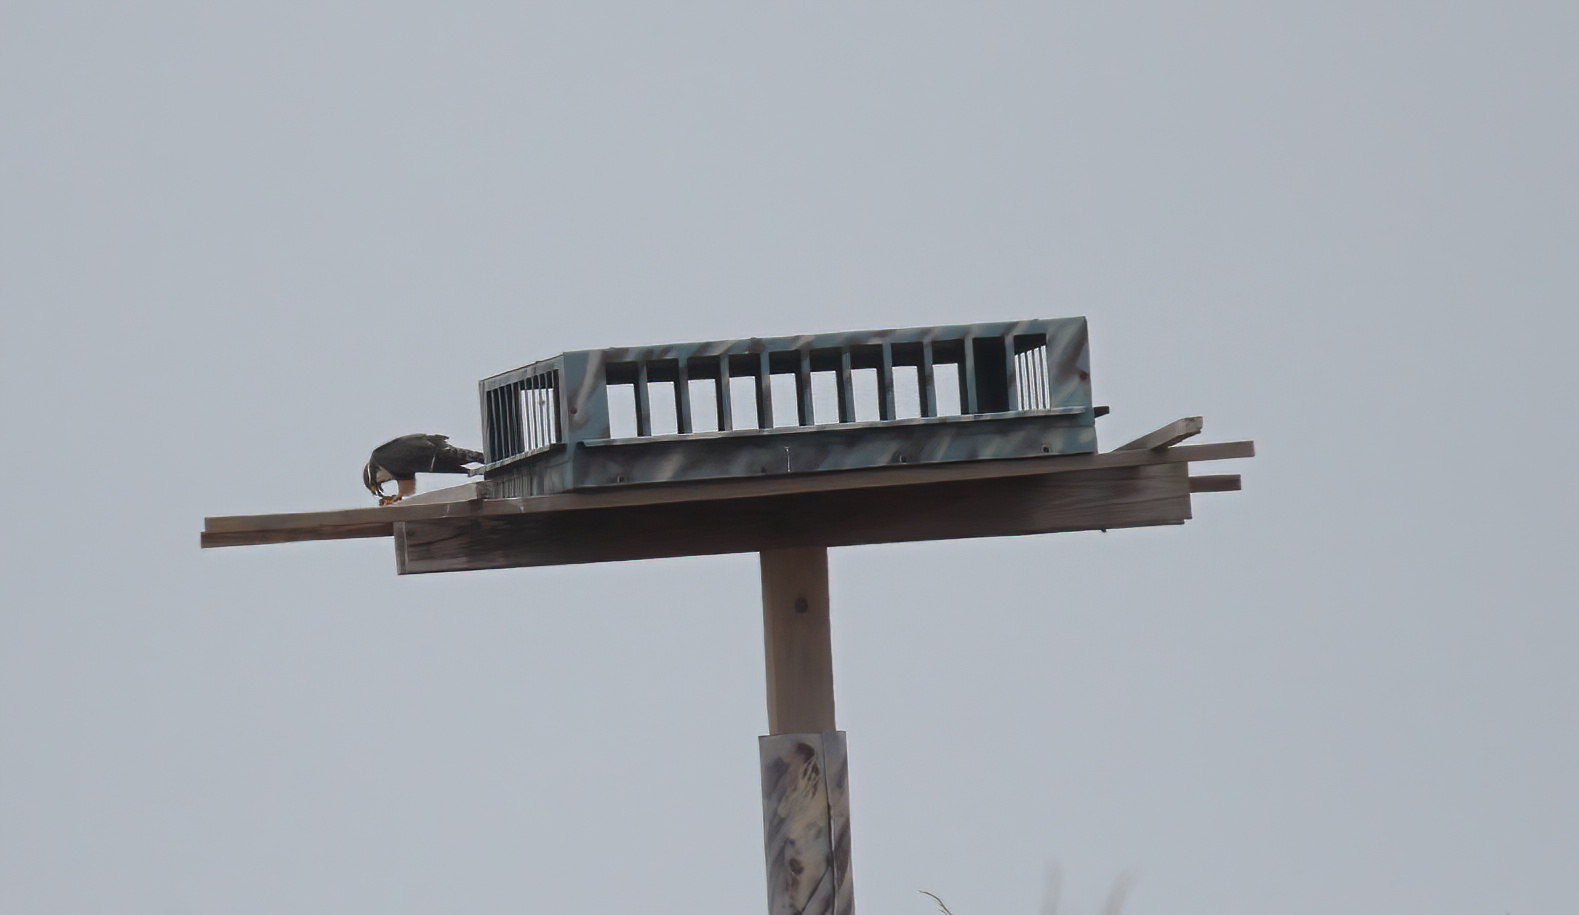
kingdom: Animalia
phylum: Chordata
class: Aves
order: Falconiformes
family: Falconidae
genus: Falco
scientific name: Falco femoralis
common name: Aplomado falcon
